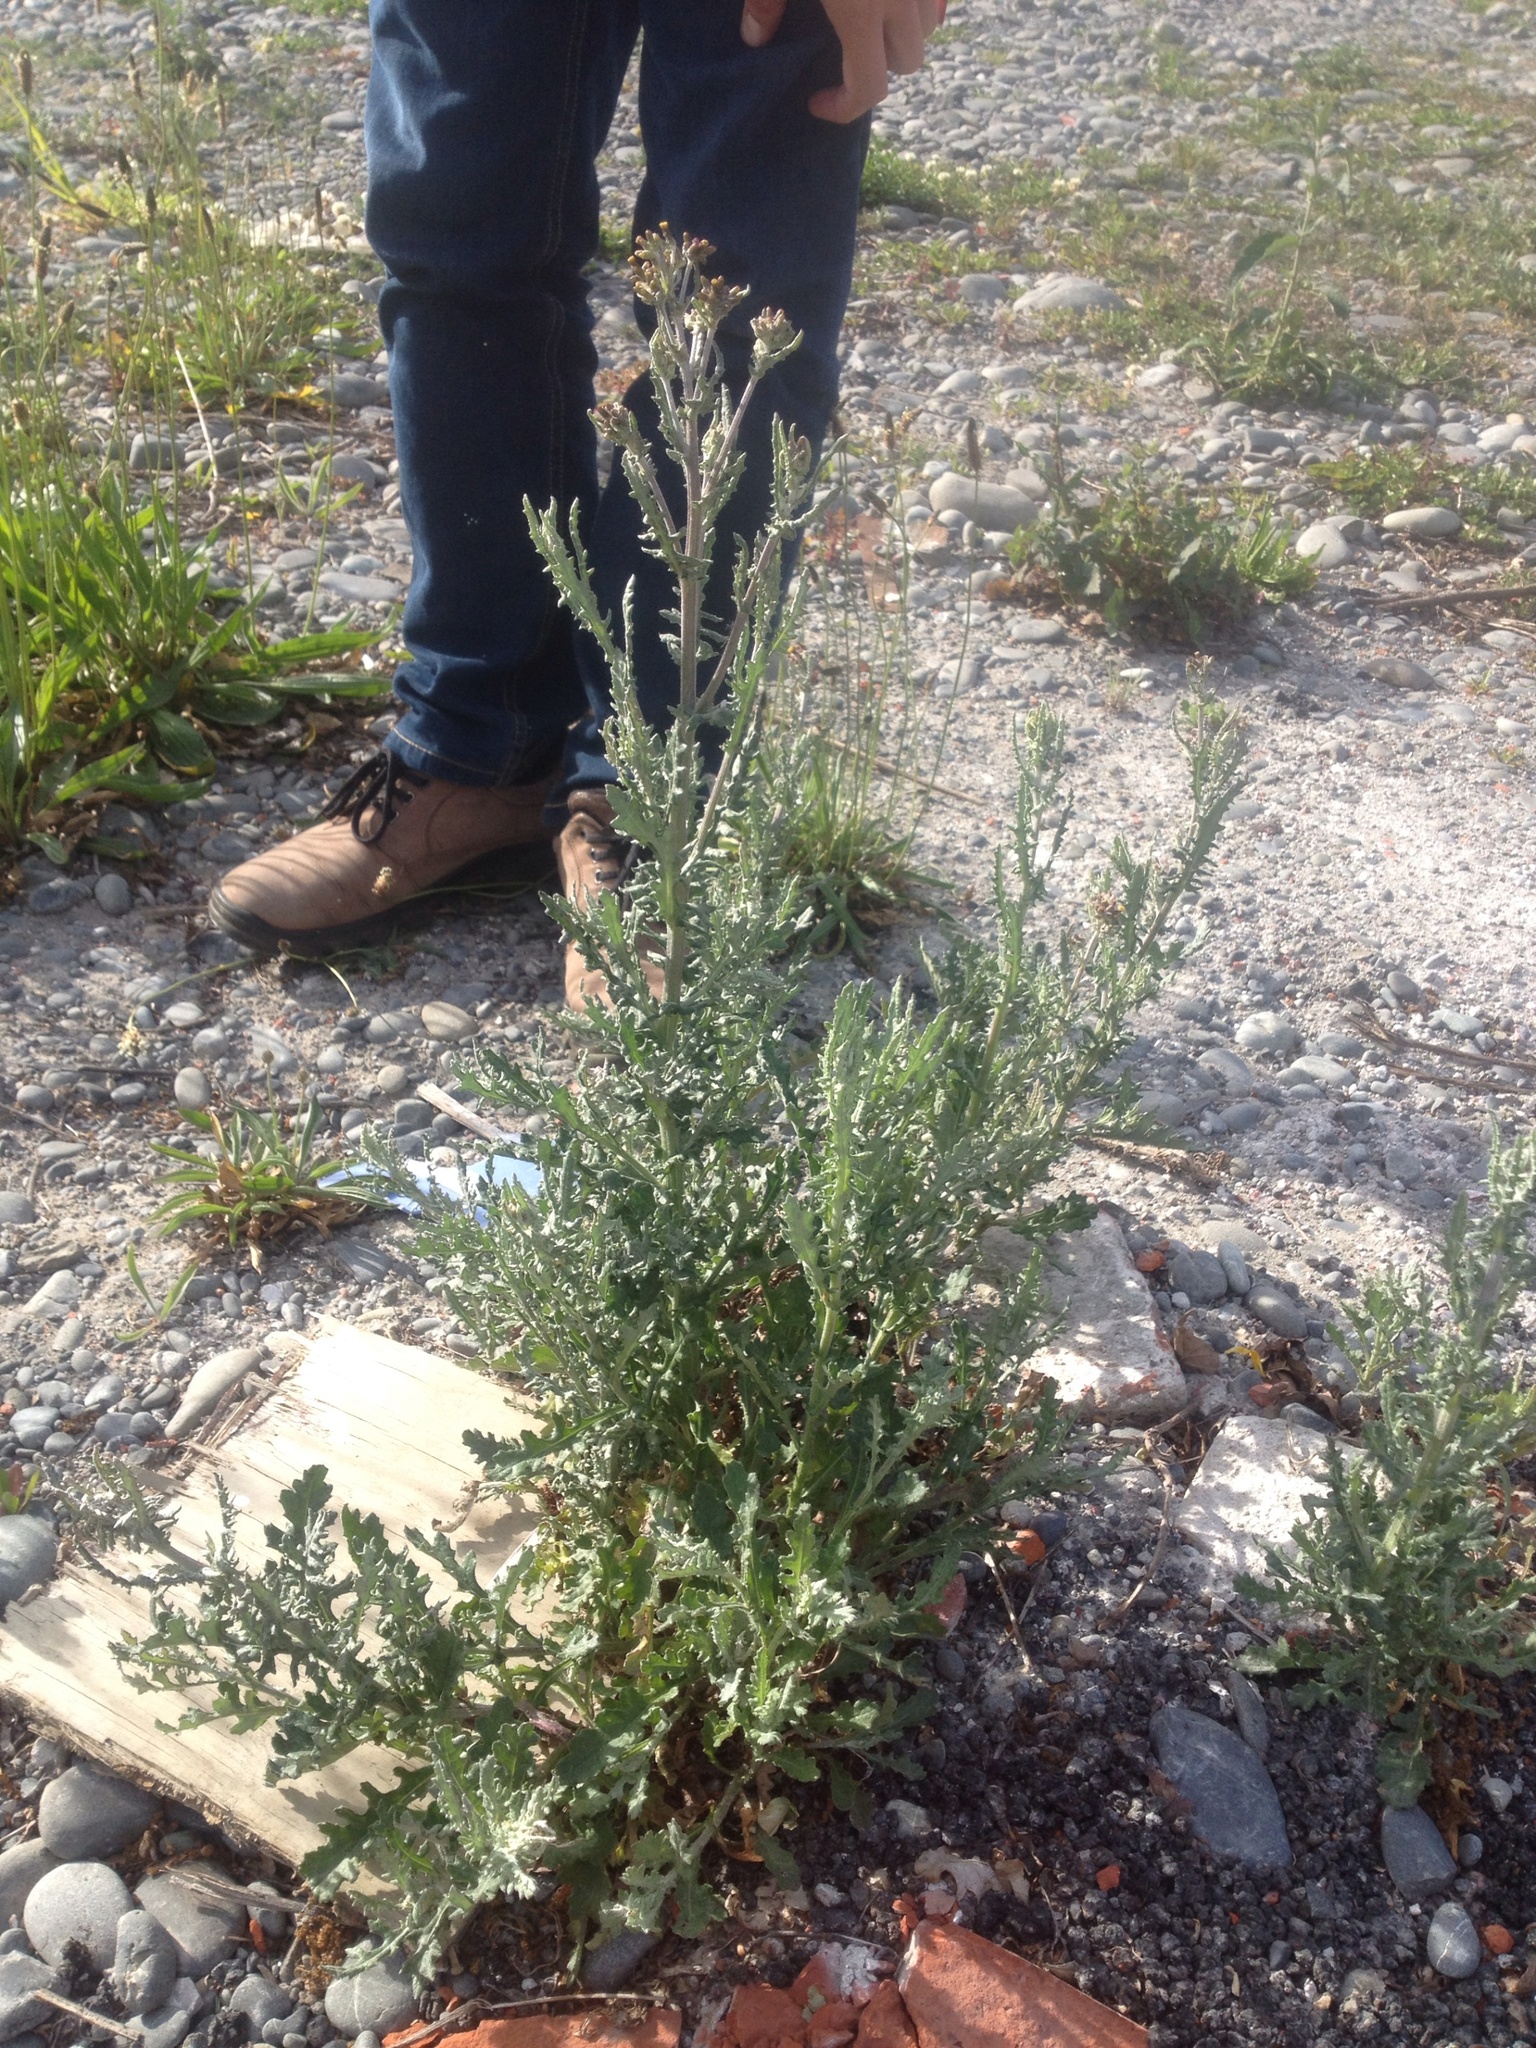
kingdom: Plantae
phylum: Tracheophyta
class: Magnoliopsida
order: Asterales
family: Asteraceae
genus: Senecio
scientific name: Senecio glomeratus
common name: Cutleaf burnweed
